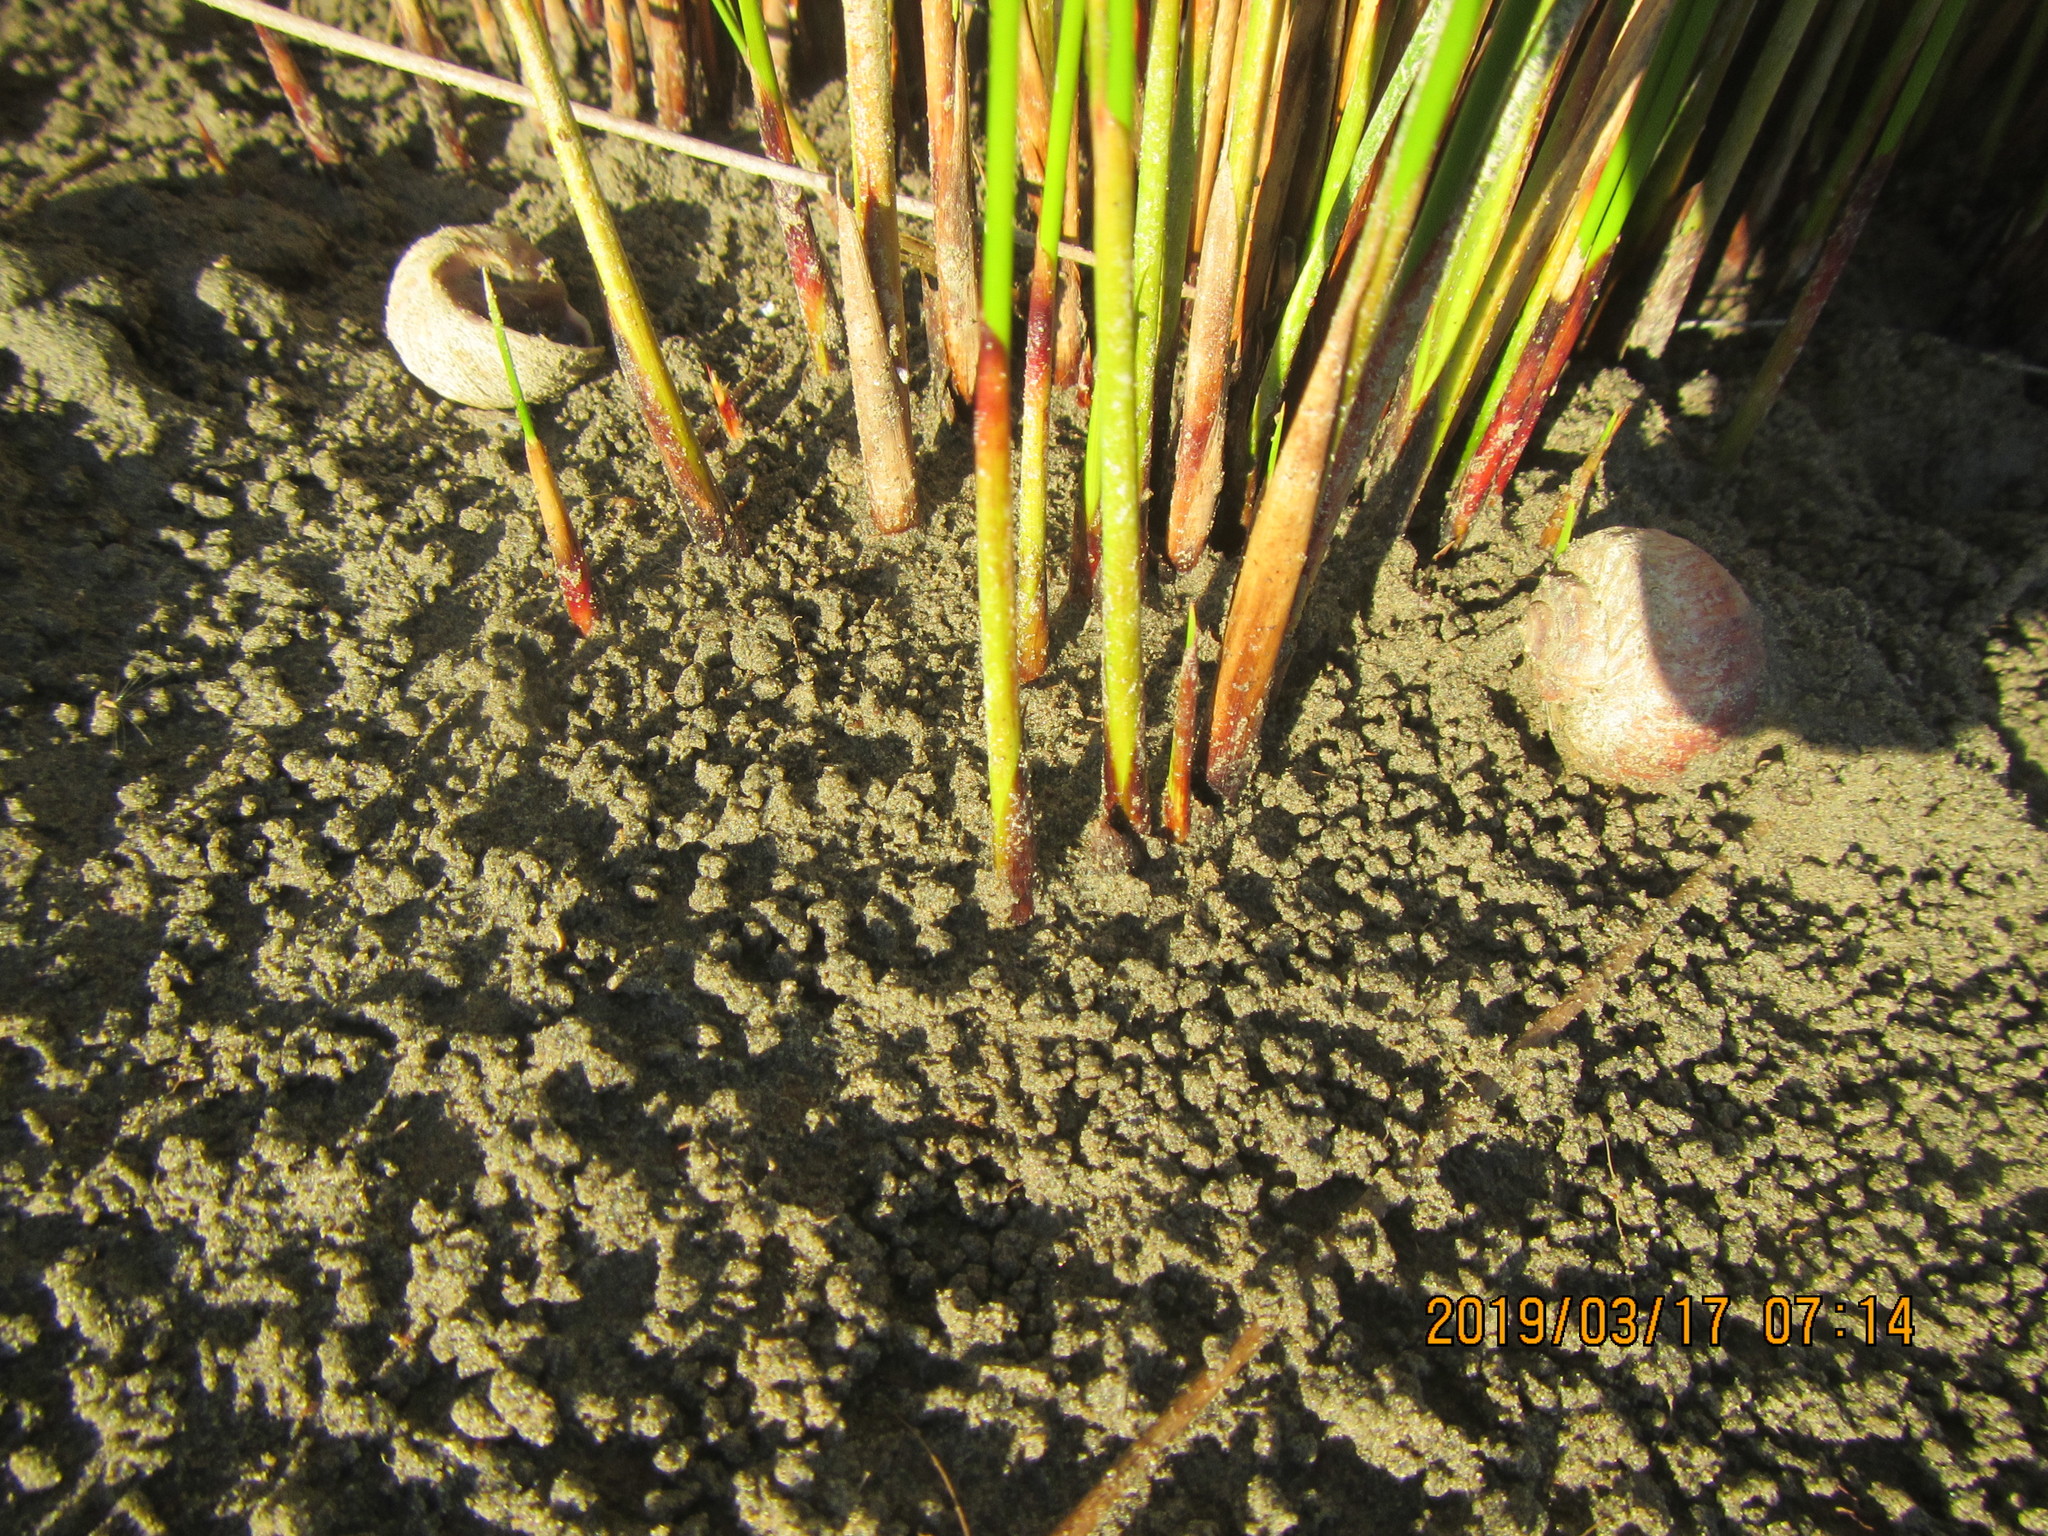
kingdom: Animalia
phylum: Mollusca
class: Gastropoda
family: Amphibolidae
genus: Amphibola
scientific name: Amphibola crenata
